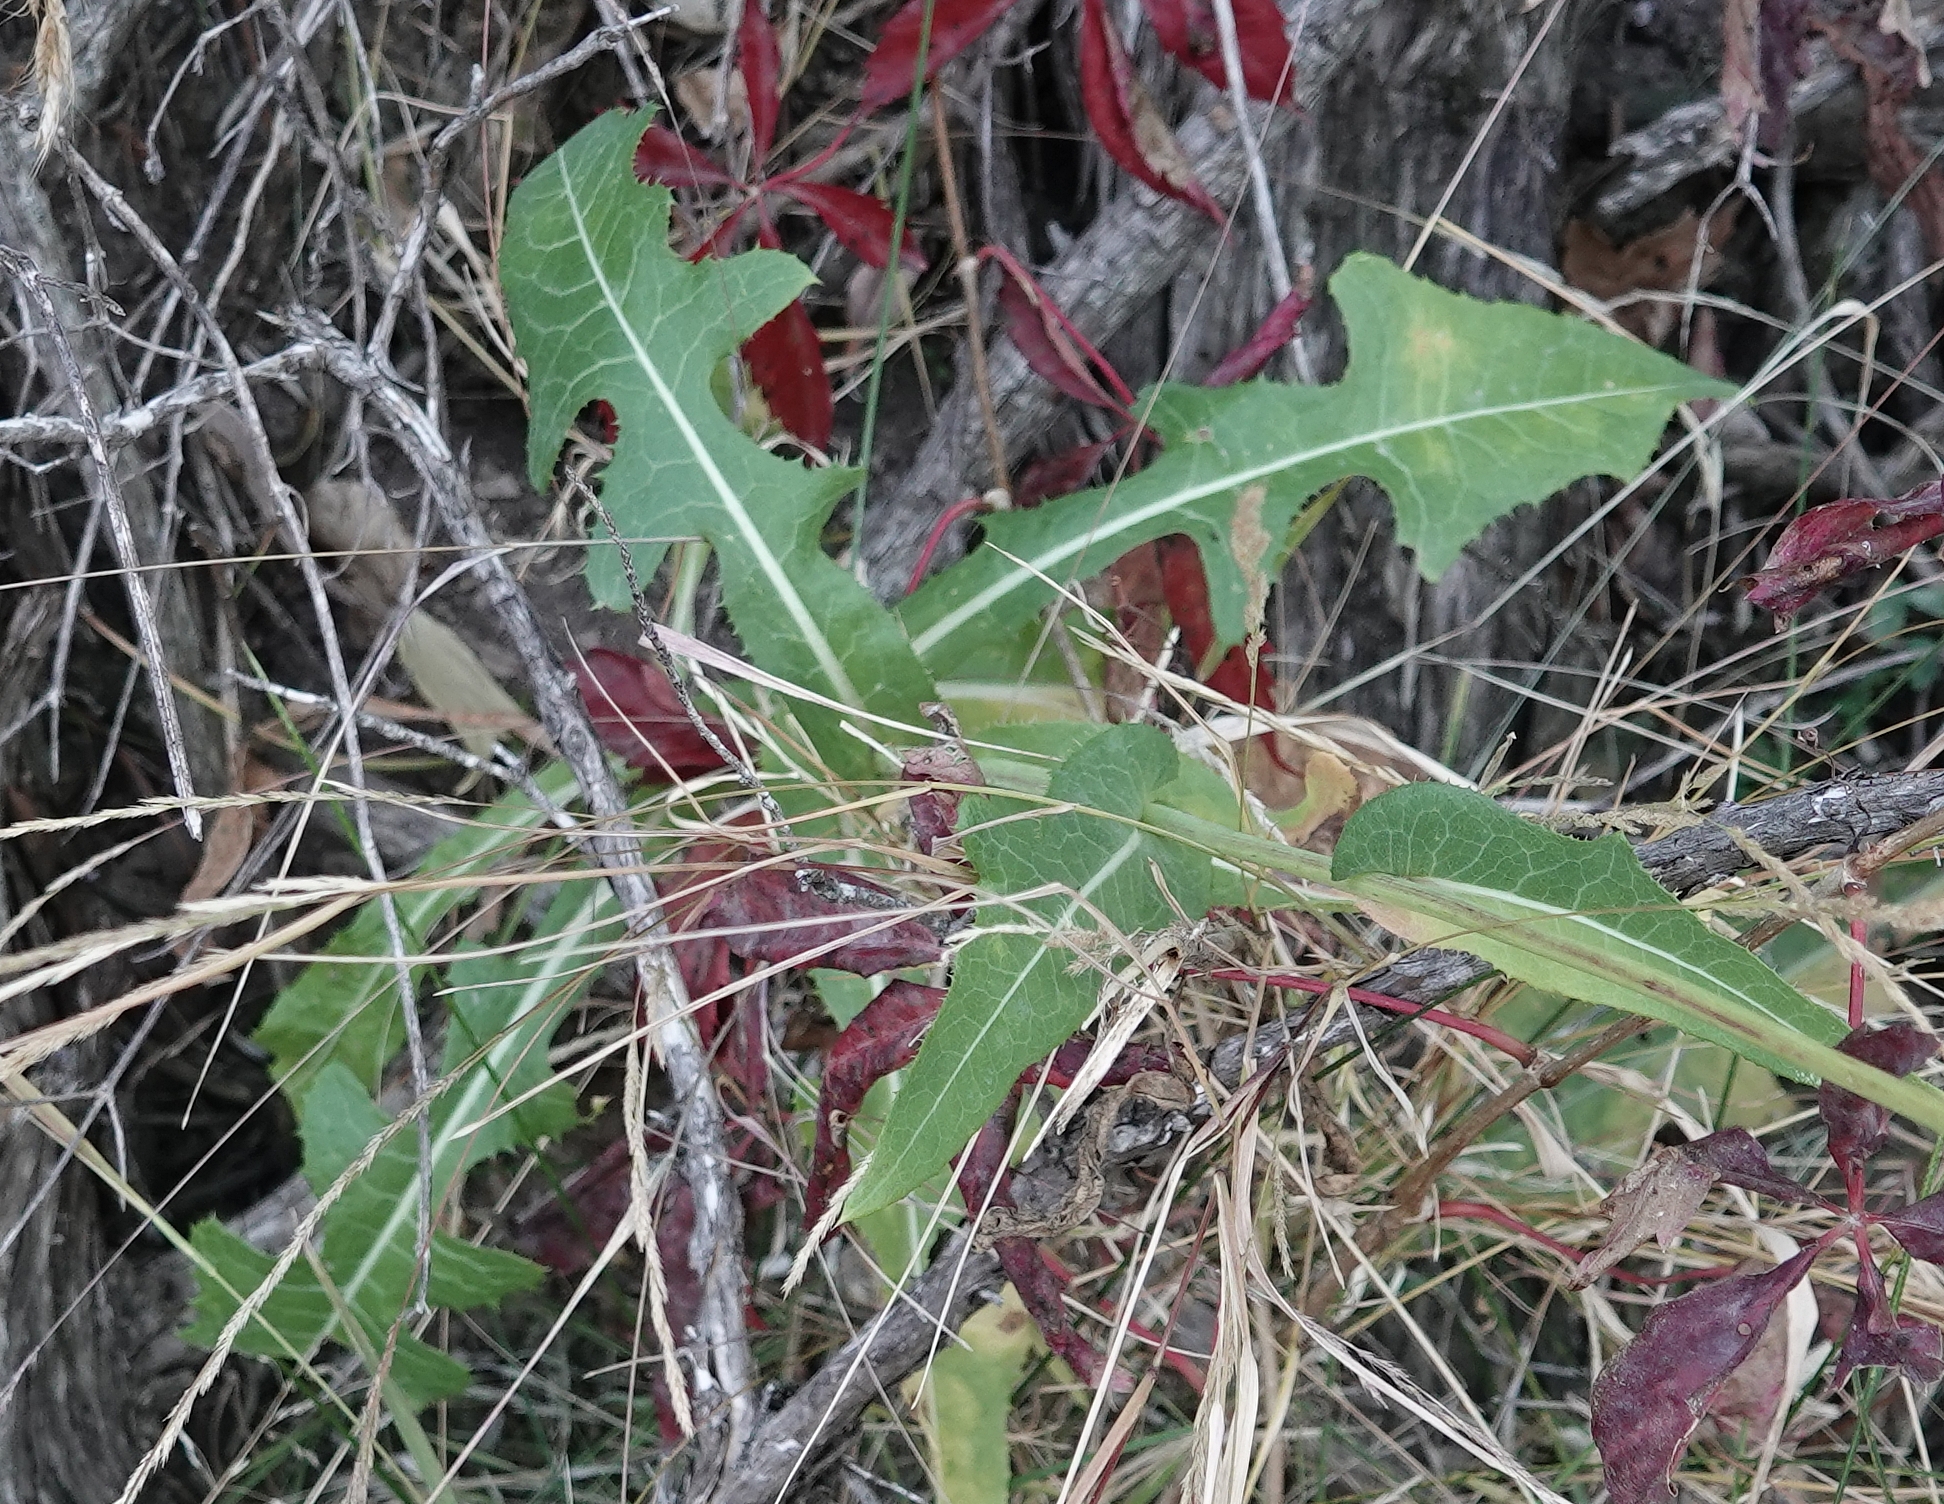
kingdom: Plantae
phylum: Tracheophyta
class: Magnoliopsida
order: Asterales
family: Asteraceae
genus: Sonchus
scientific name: Sonchus arvensis
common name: Perennial sow-thistle
